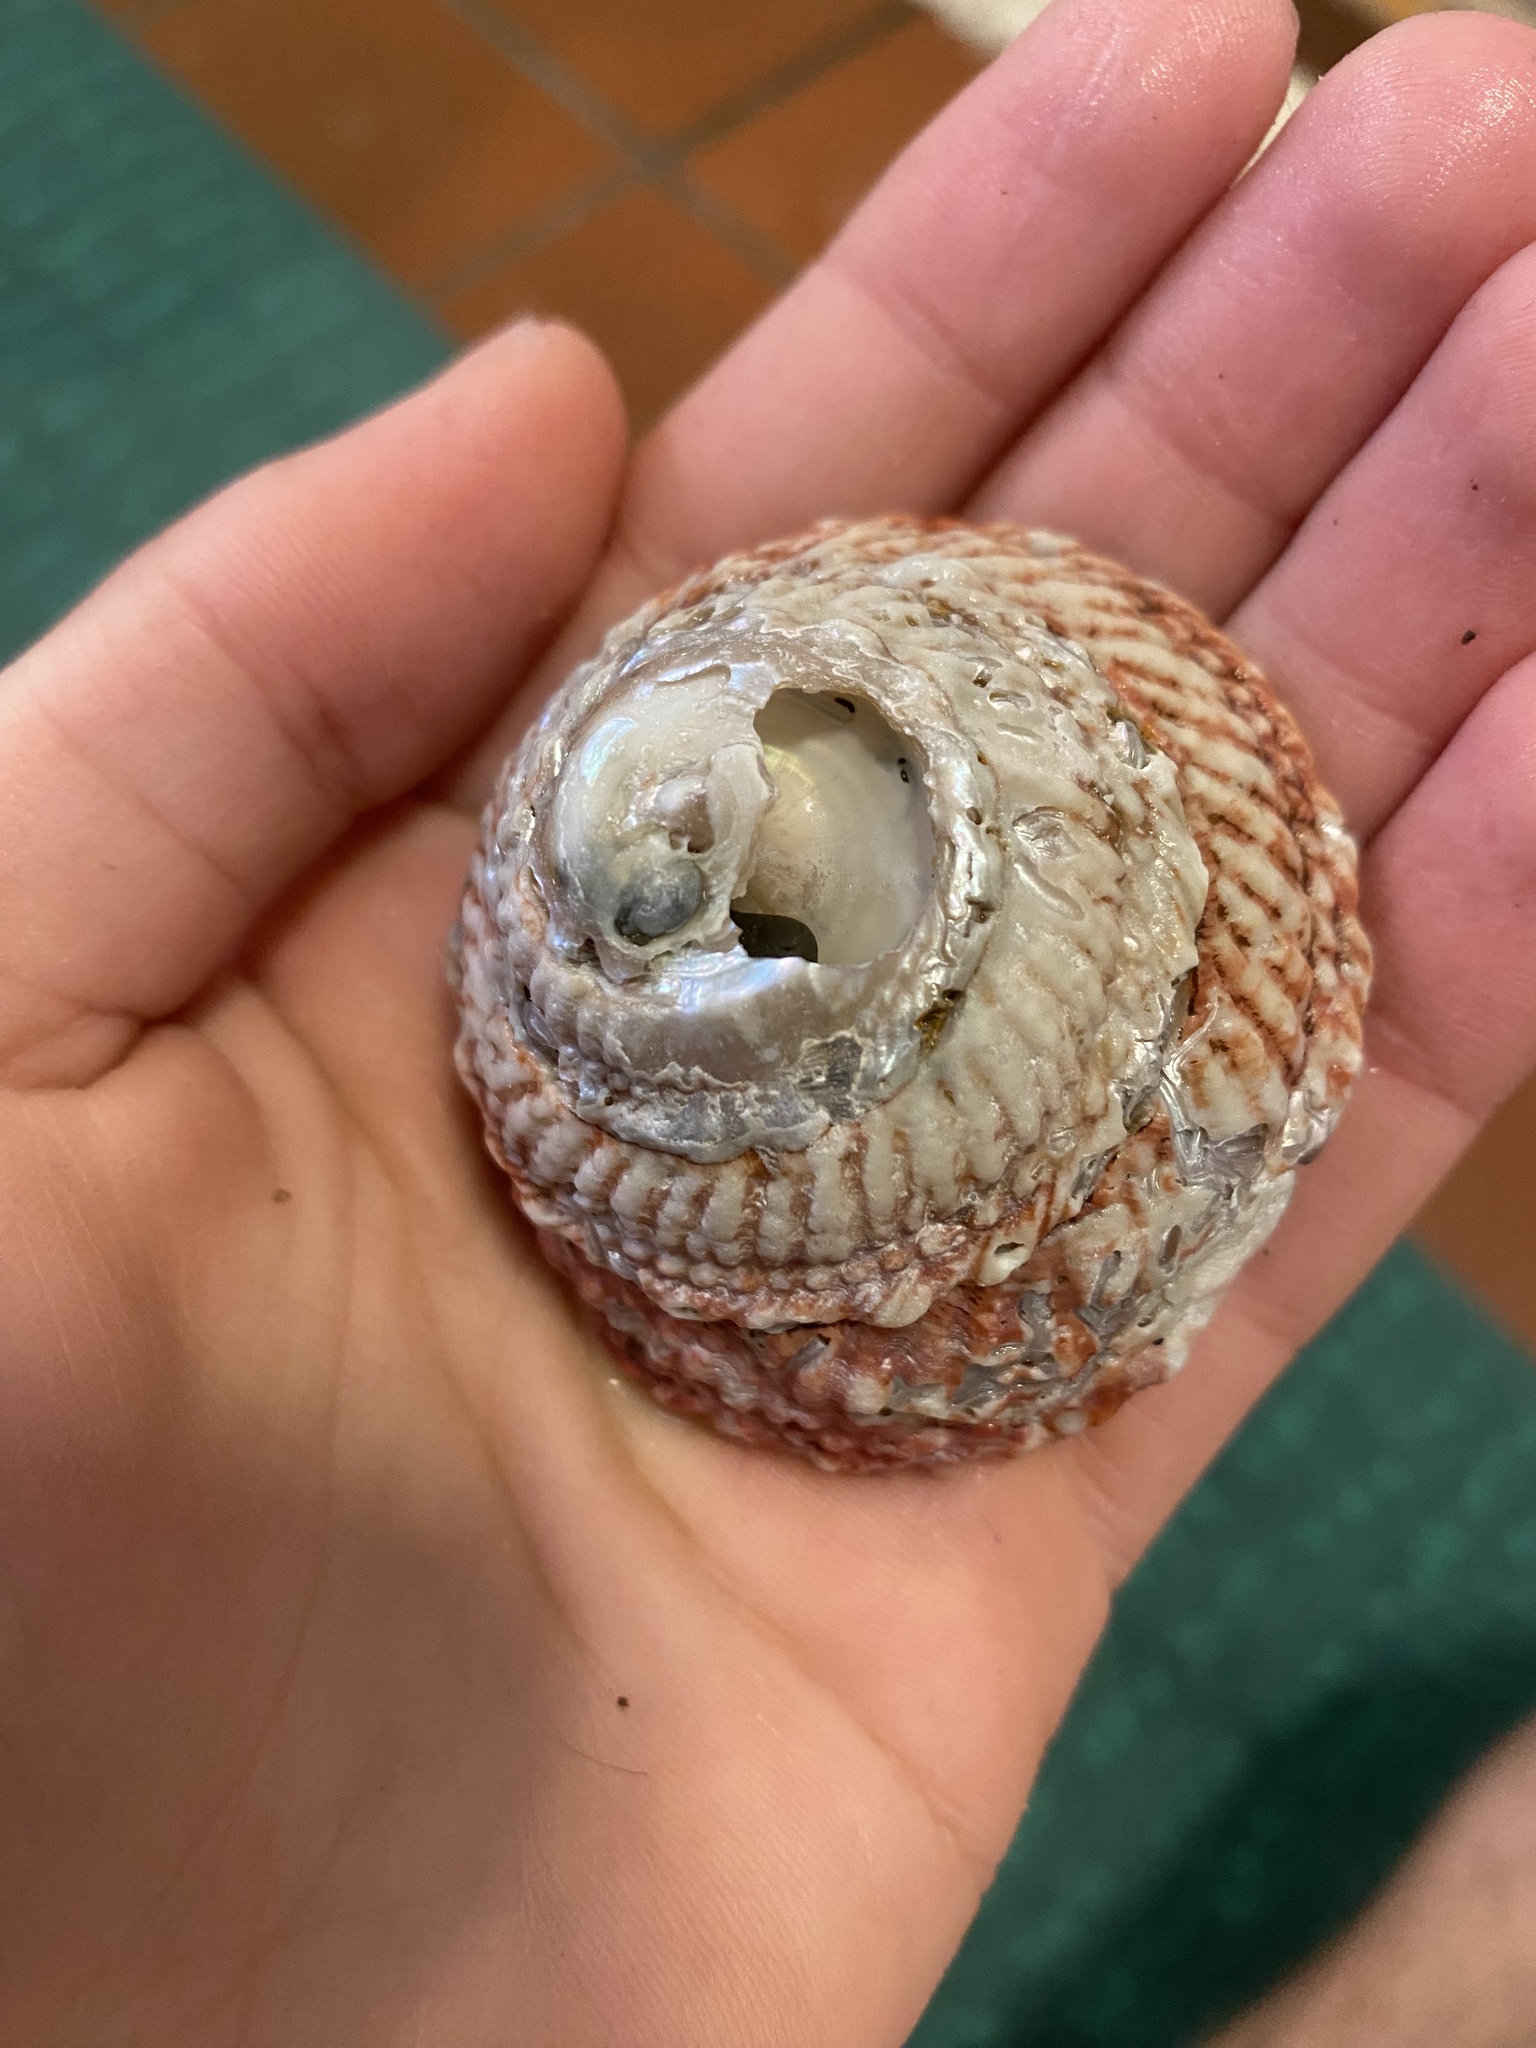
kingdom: Animalia
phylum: Mollusca
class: Gastropoda
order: Trochida
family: Turbinidae
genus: Pomaulax
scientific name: Pomaulax gibberosus
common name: Red turban
